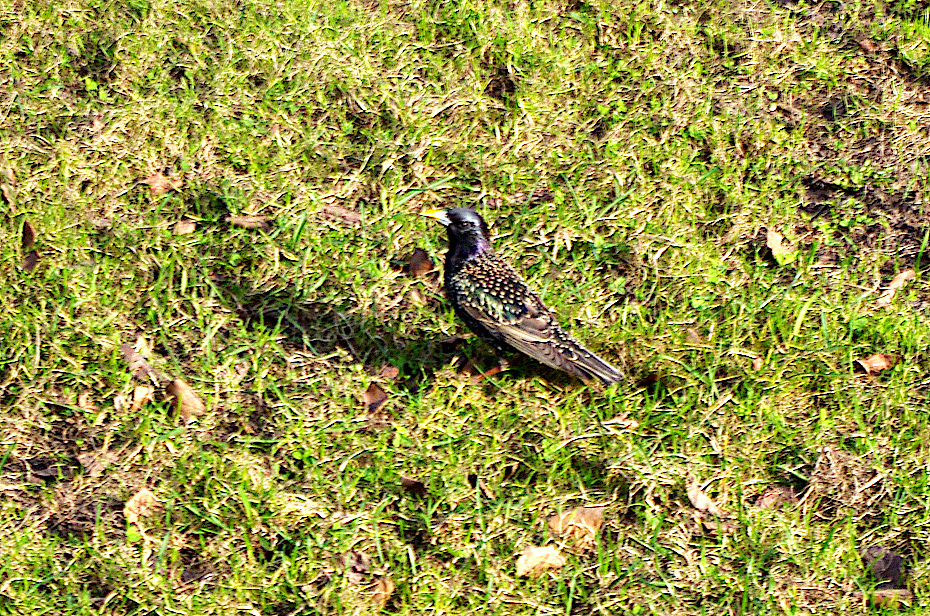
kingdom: Animalia
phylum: Chordata
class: Aves
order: Passeriformes
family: Sturnidae
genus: Sturnus
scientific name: Sturnus vulgaris
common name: Common starling
